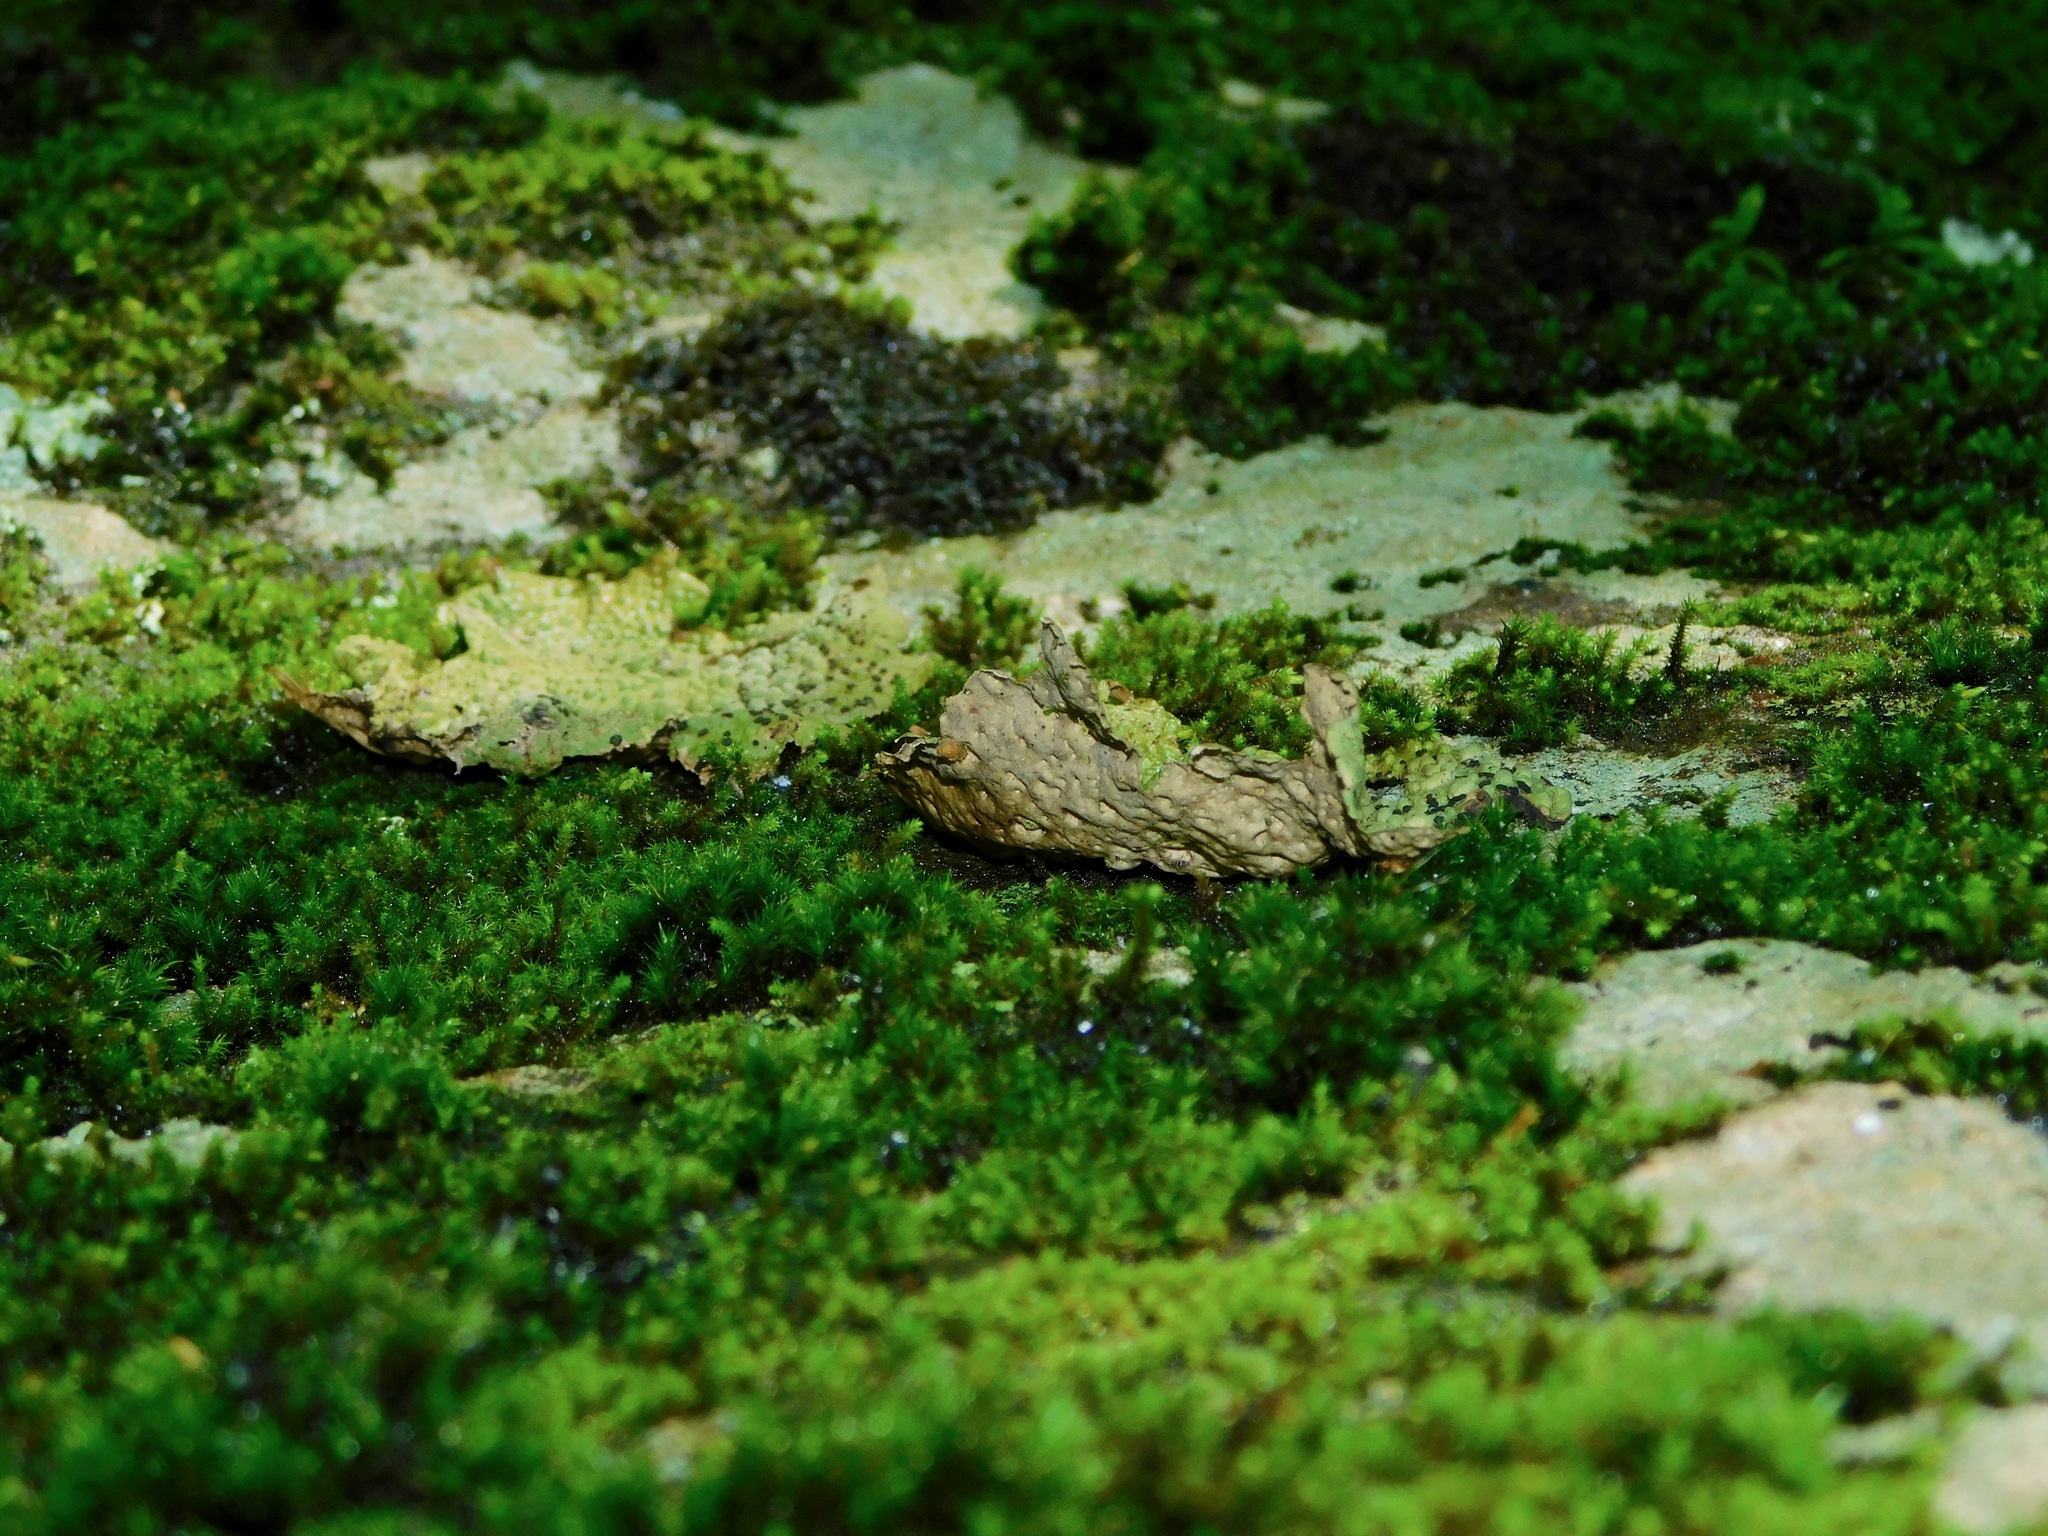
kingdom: Fungi
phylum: Ascomycota
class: Lecanoromycetes
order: Umbilicariales
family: Umbilicariaceae
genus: Lasallia
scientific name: Lasallia papulosa
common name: Common toadskin lichen
